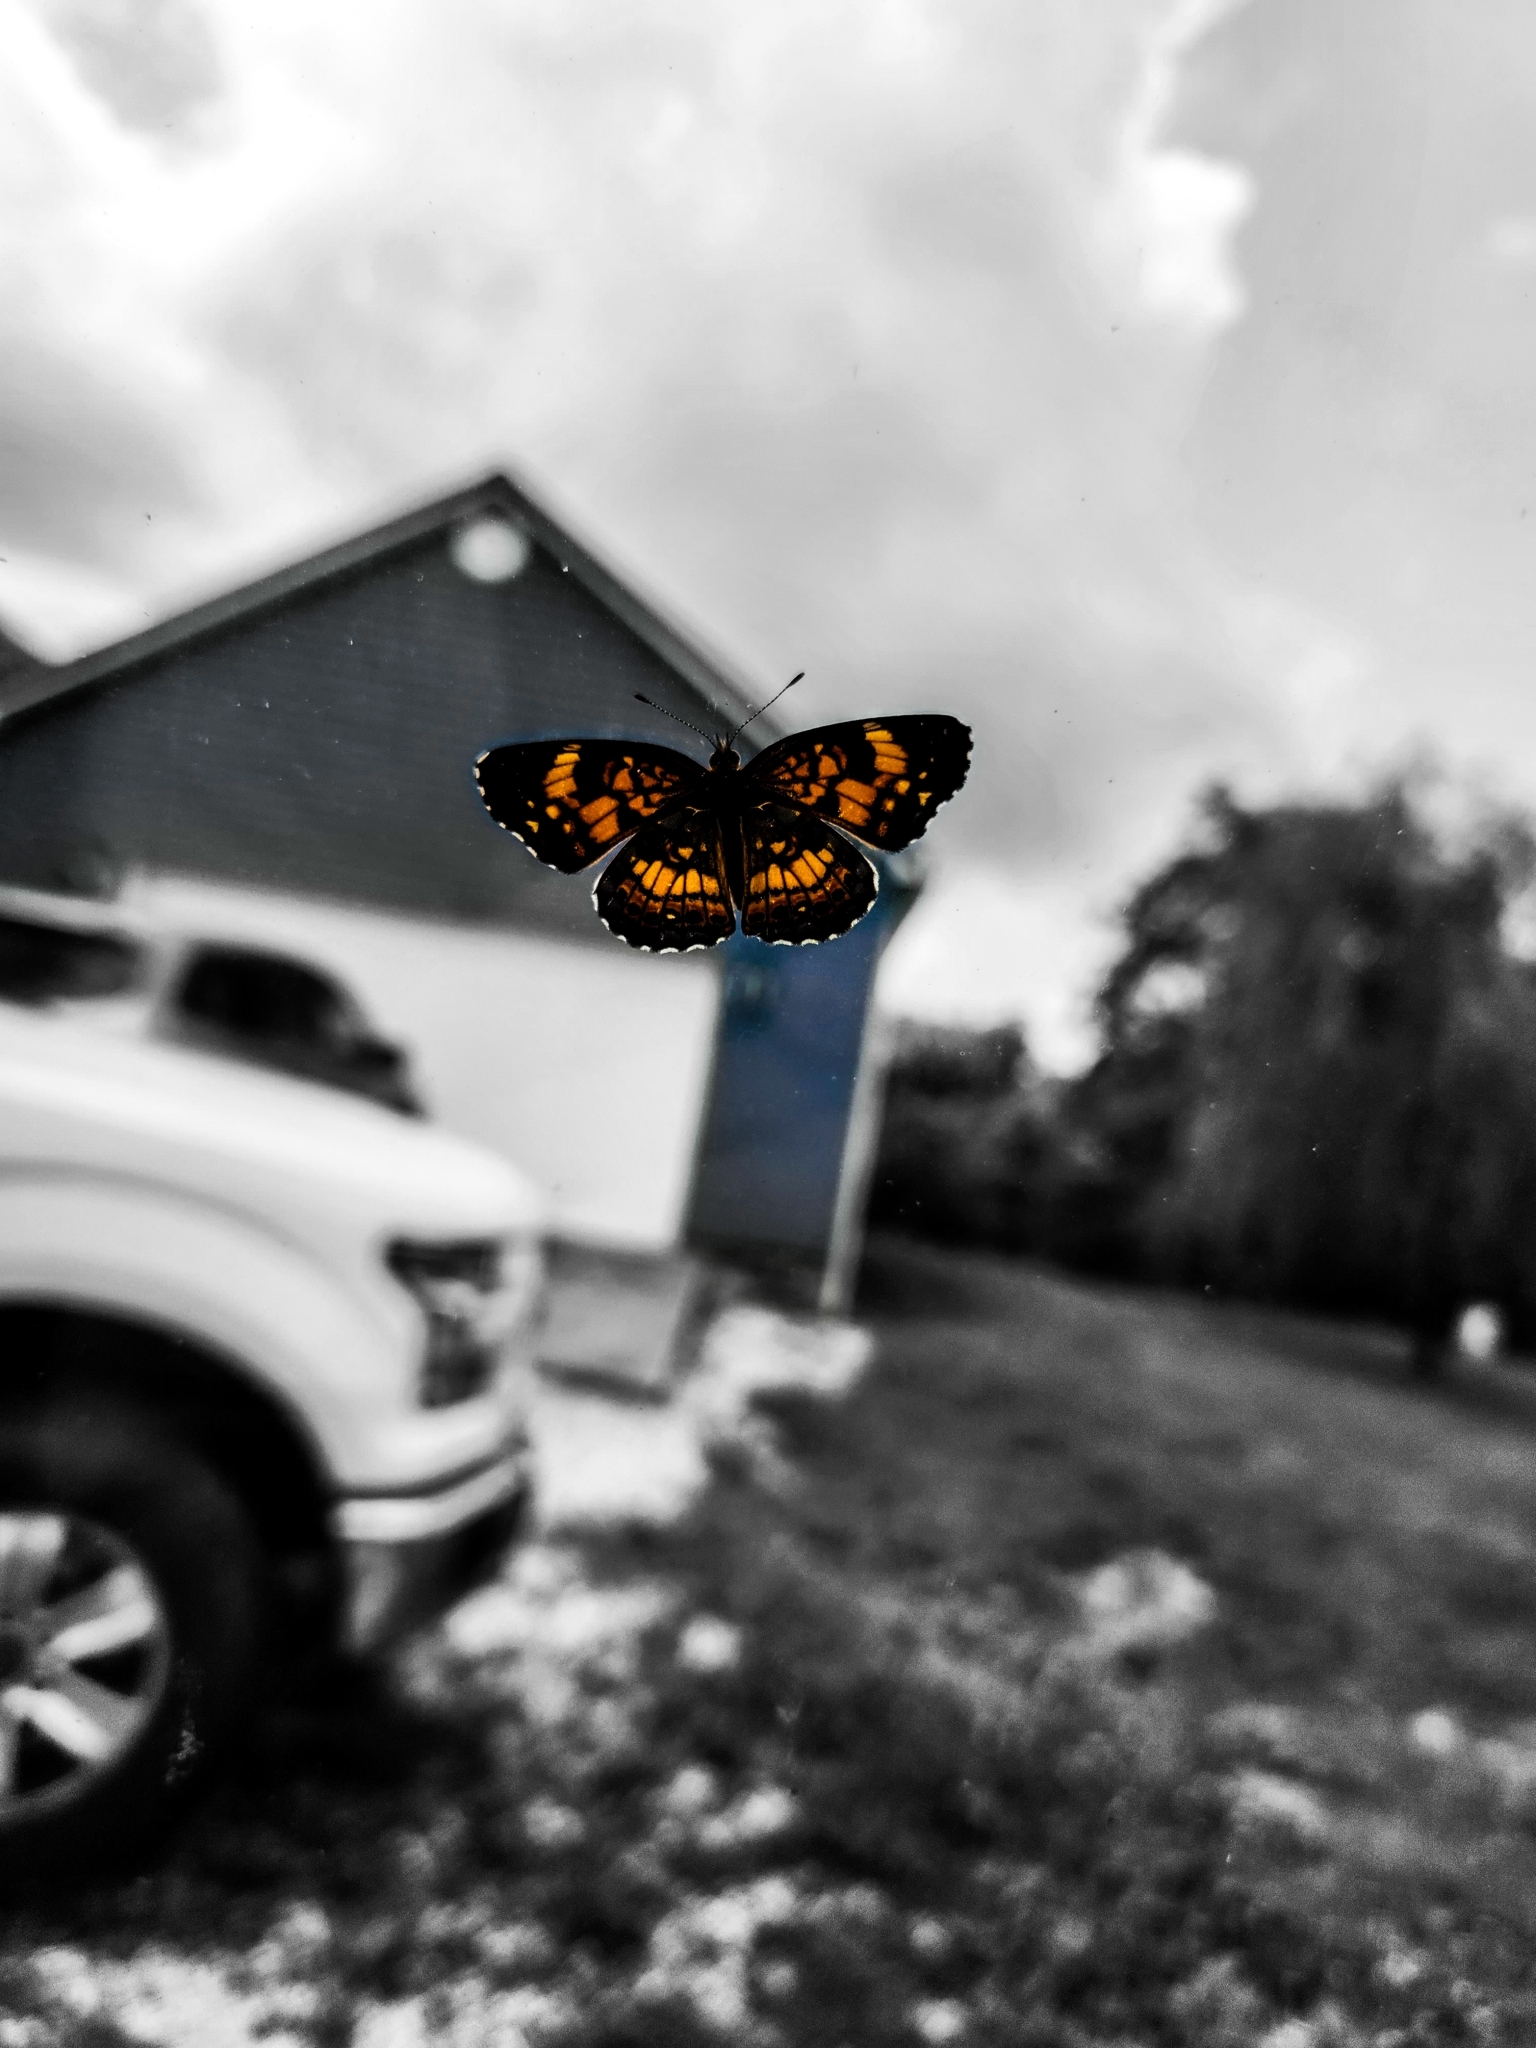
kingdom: Animalia
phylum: Arthropoda
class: Insecta
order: Lepidoptera
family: Nymphalidae
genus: Chlosyne
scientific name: Chlosyne nycteis
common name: Silvery checkerspot
